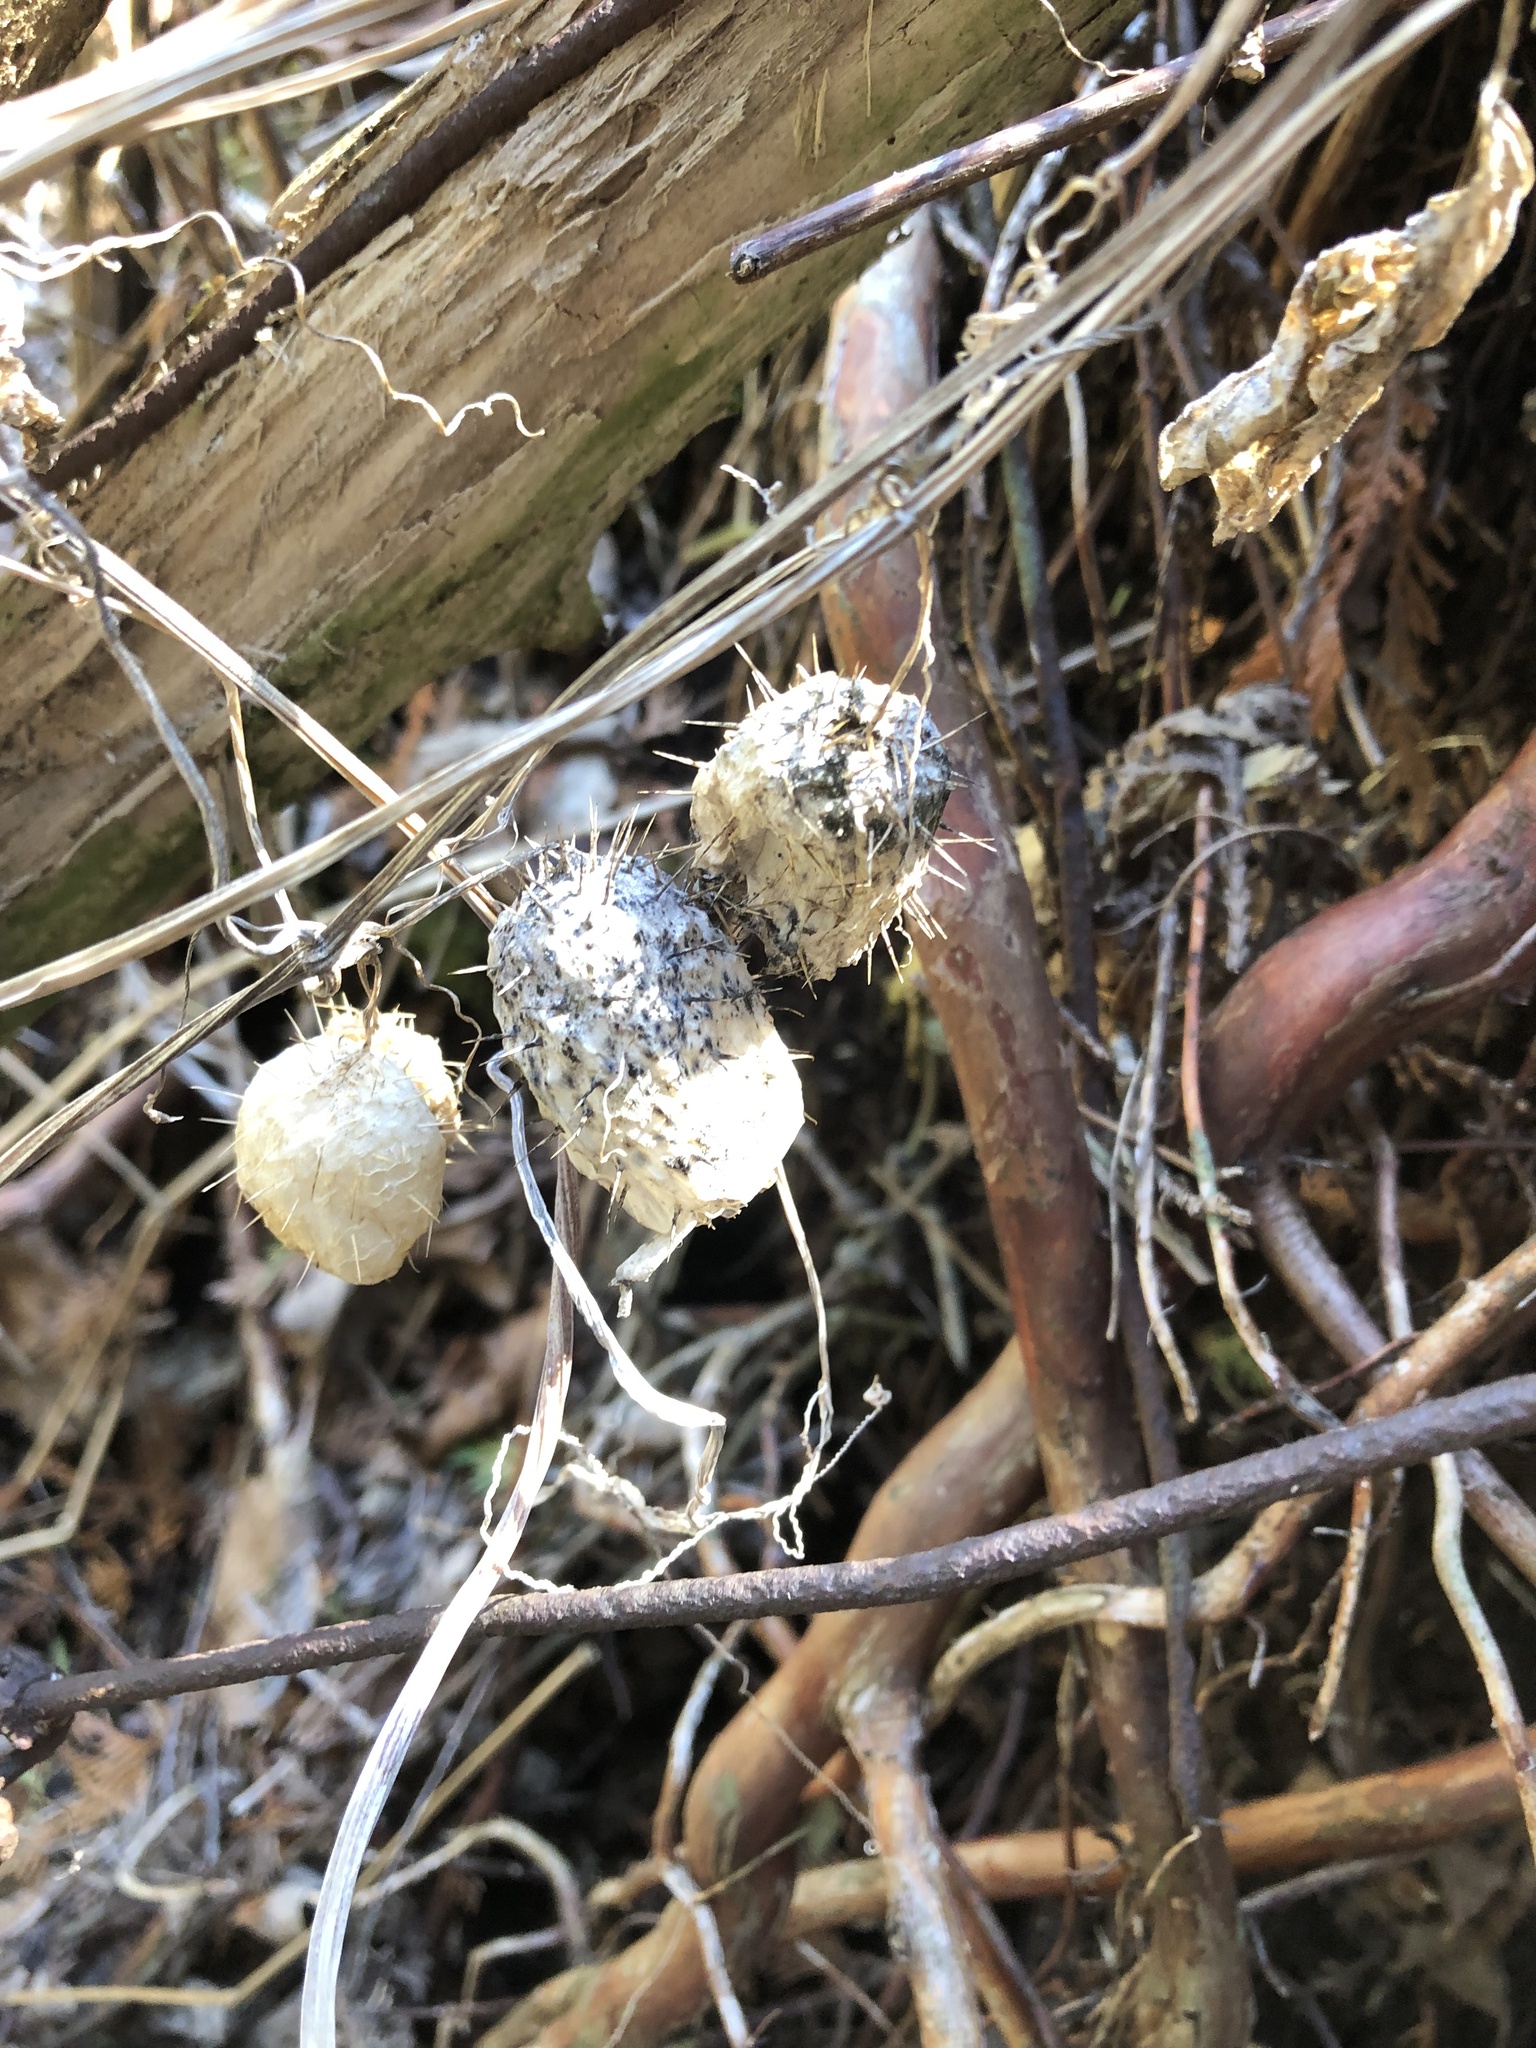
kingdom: Plantae
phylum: Tracheophyta
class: Magnoliopsida
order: Cucurbitales
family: Cucurbitaceae
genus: Echinocystis
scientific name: Echinocystis lobata
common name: Wild cucumber
